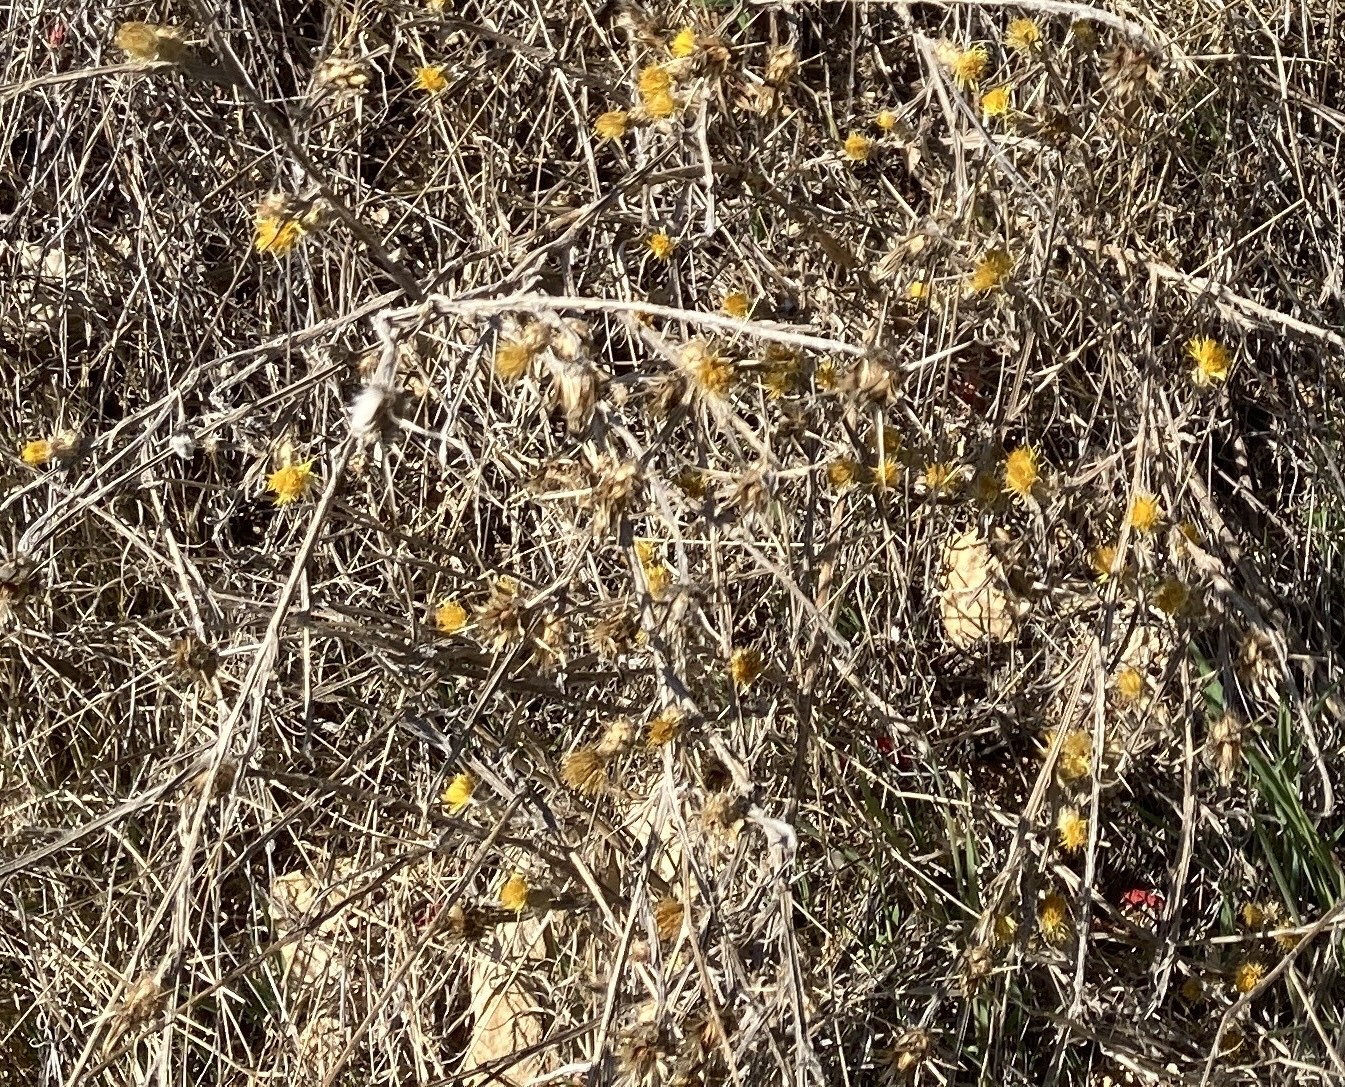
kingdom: Plantae
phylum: Tracheophyta
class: Magnoliopsida
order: Asterales
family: Asteraceae
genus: Centaurea
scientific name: Centaurea solstitialis
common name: Yellow star-thistle
